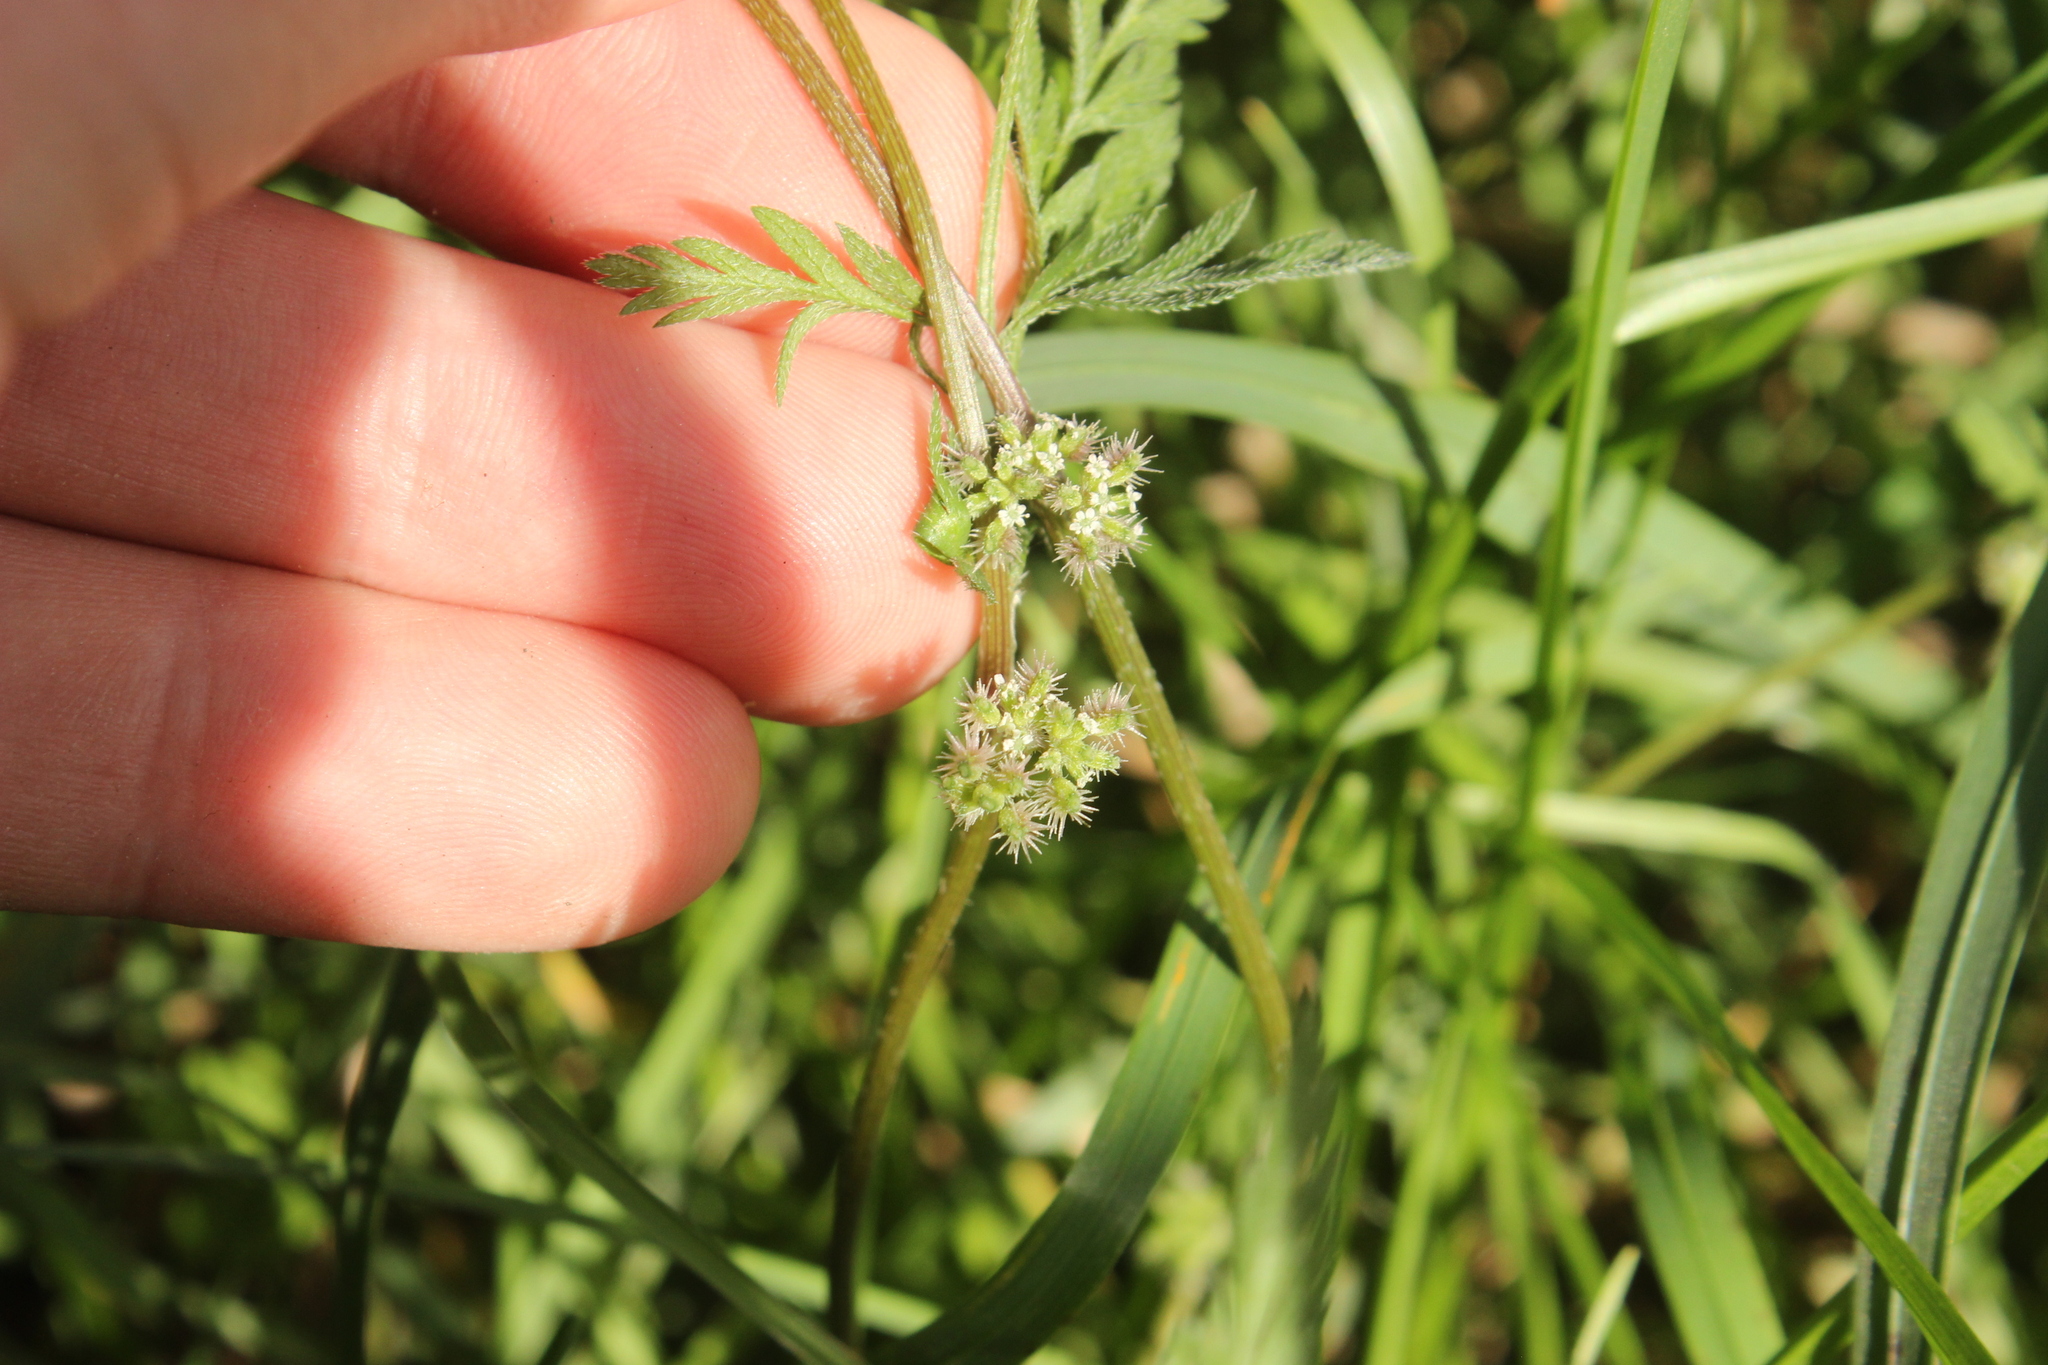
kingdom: Plantae
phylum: Tracheophyta
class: Magnoliopsida
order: Apiales
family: Apiaceae
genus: Torilis
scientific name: Torilis nodosa
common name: Knotted hedge-parsley
